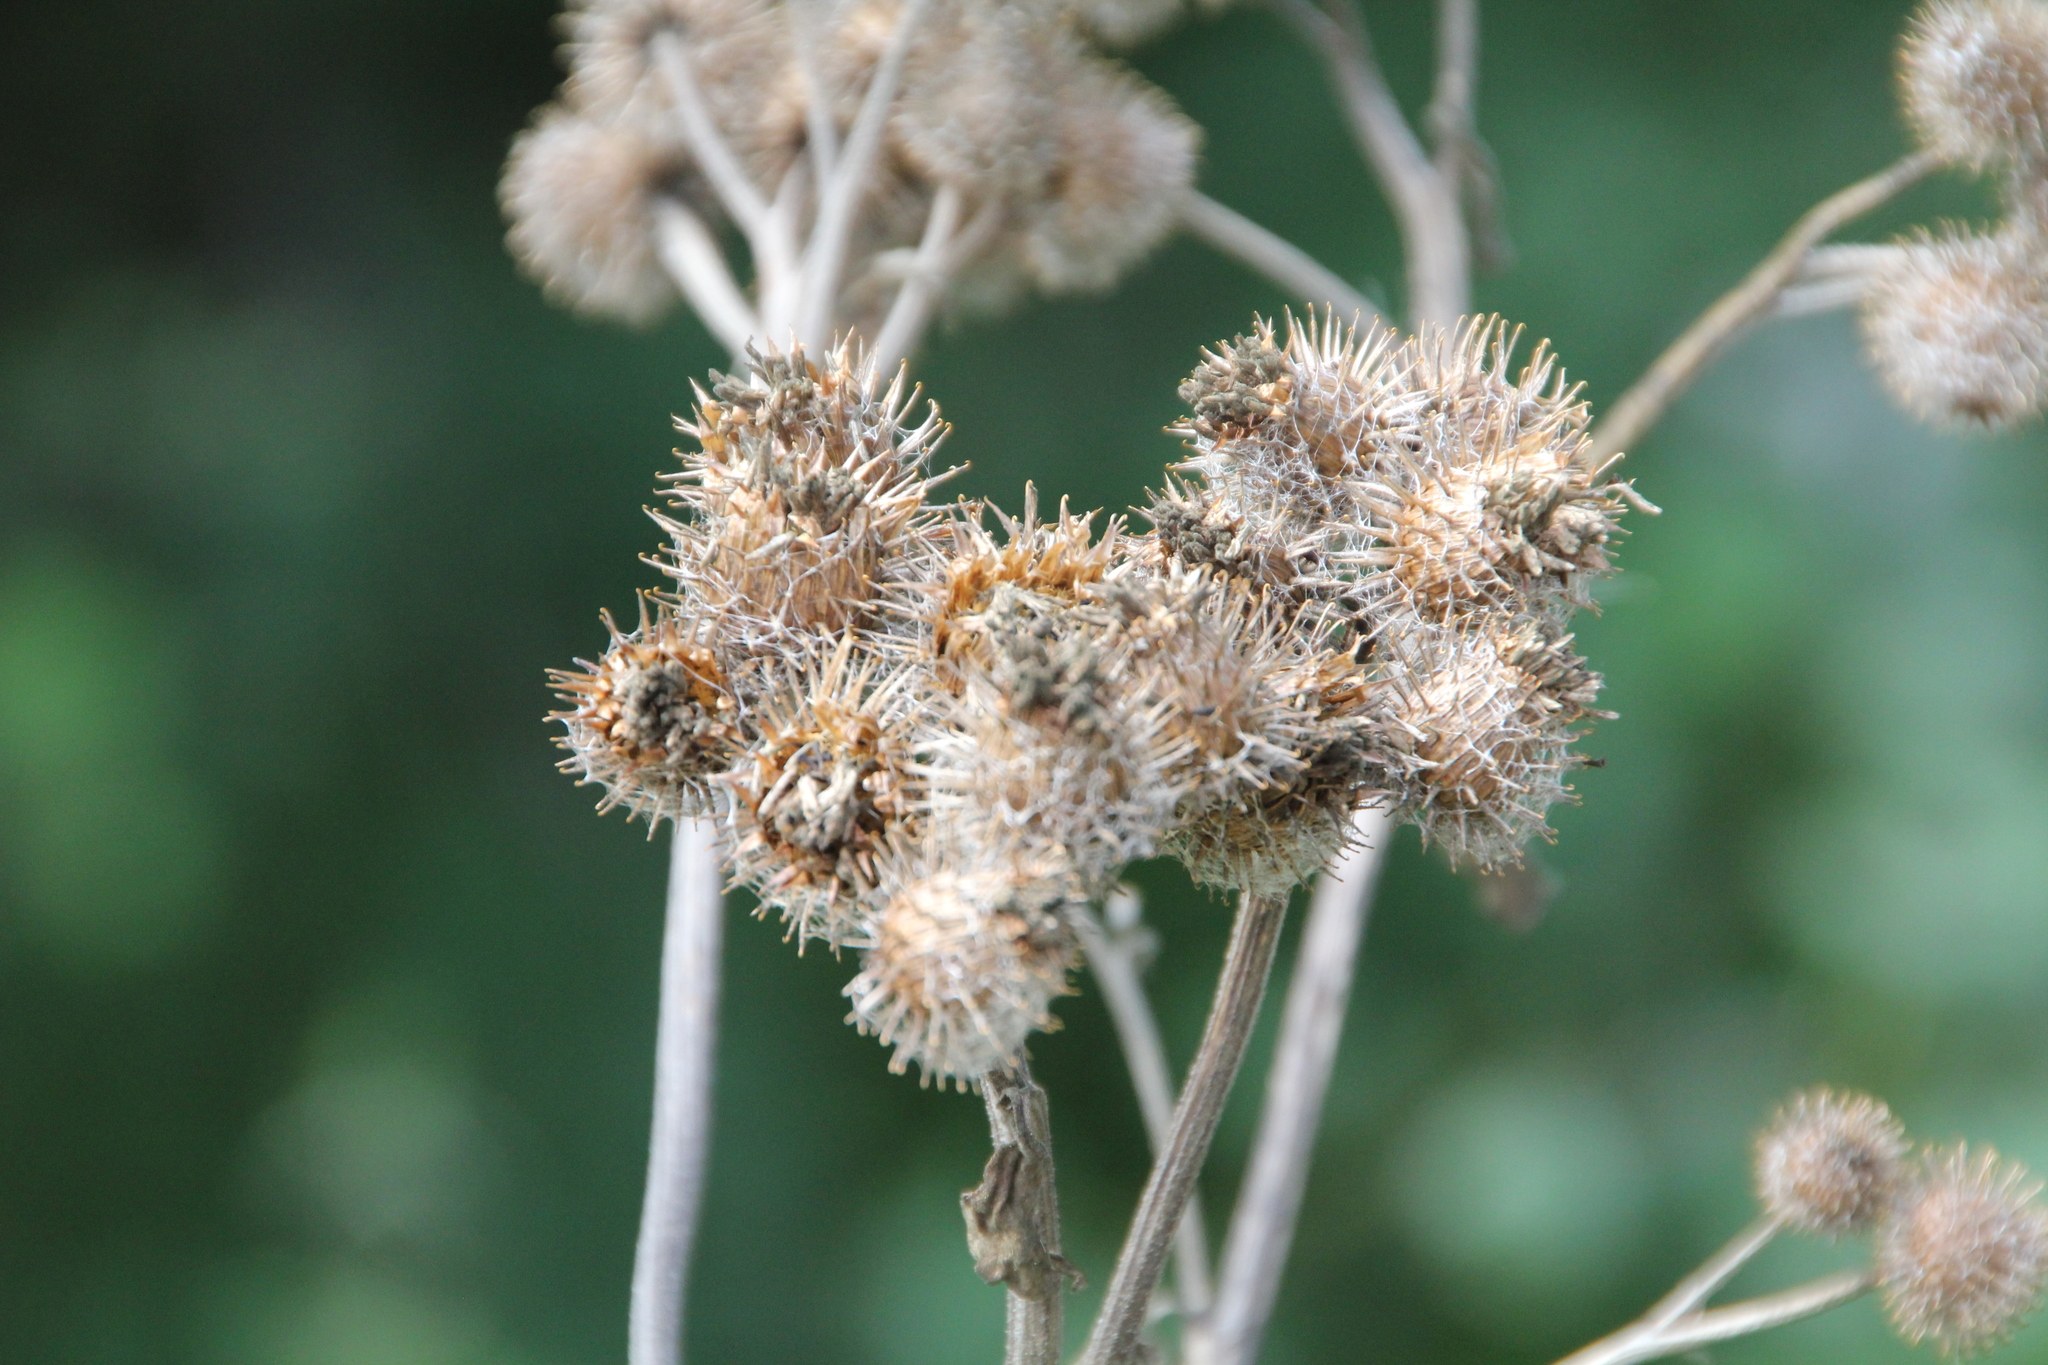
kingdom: Plantae
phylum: Tracheophyta
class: Magnoliopsida
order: Asterales
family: Asteraceae
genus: Arctium
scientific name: Arctium tomentosum
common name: Woolly burdock
